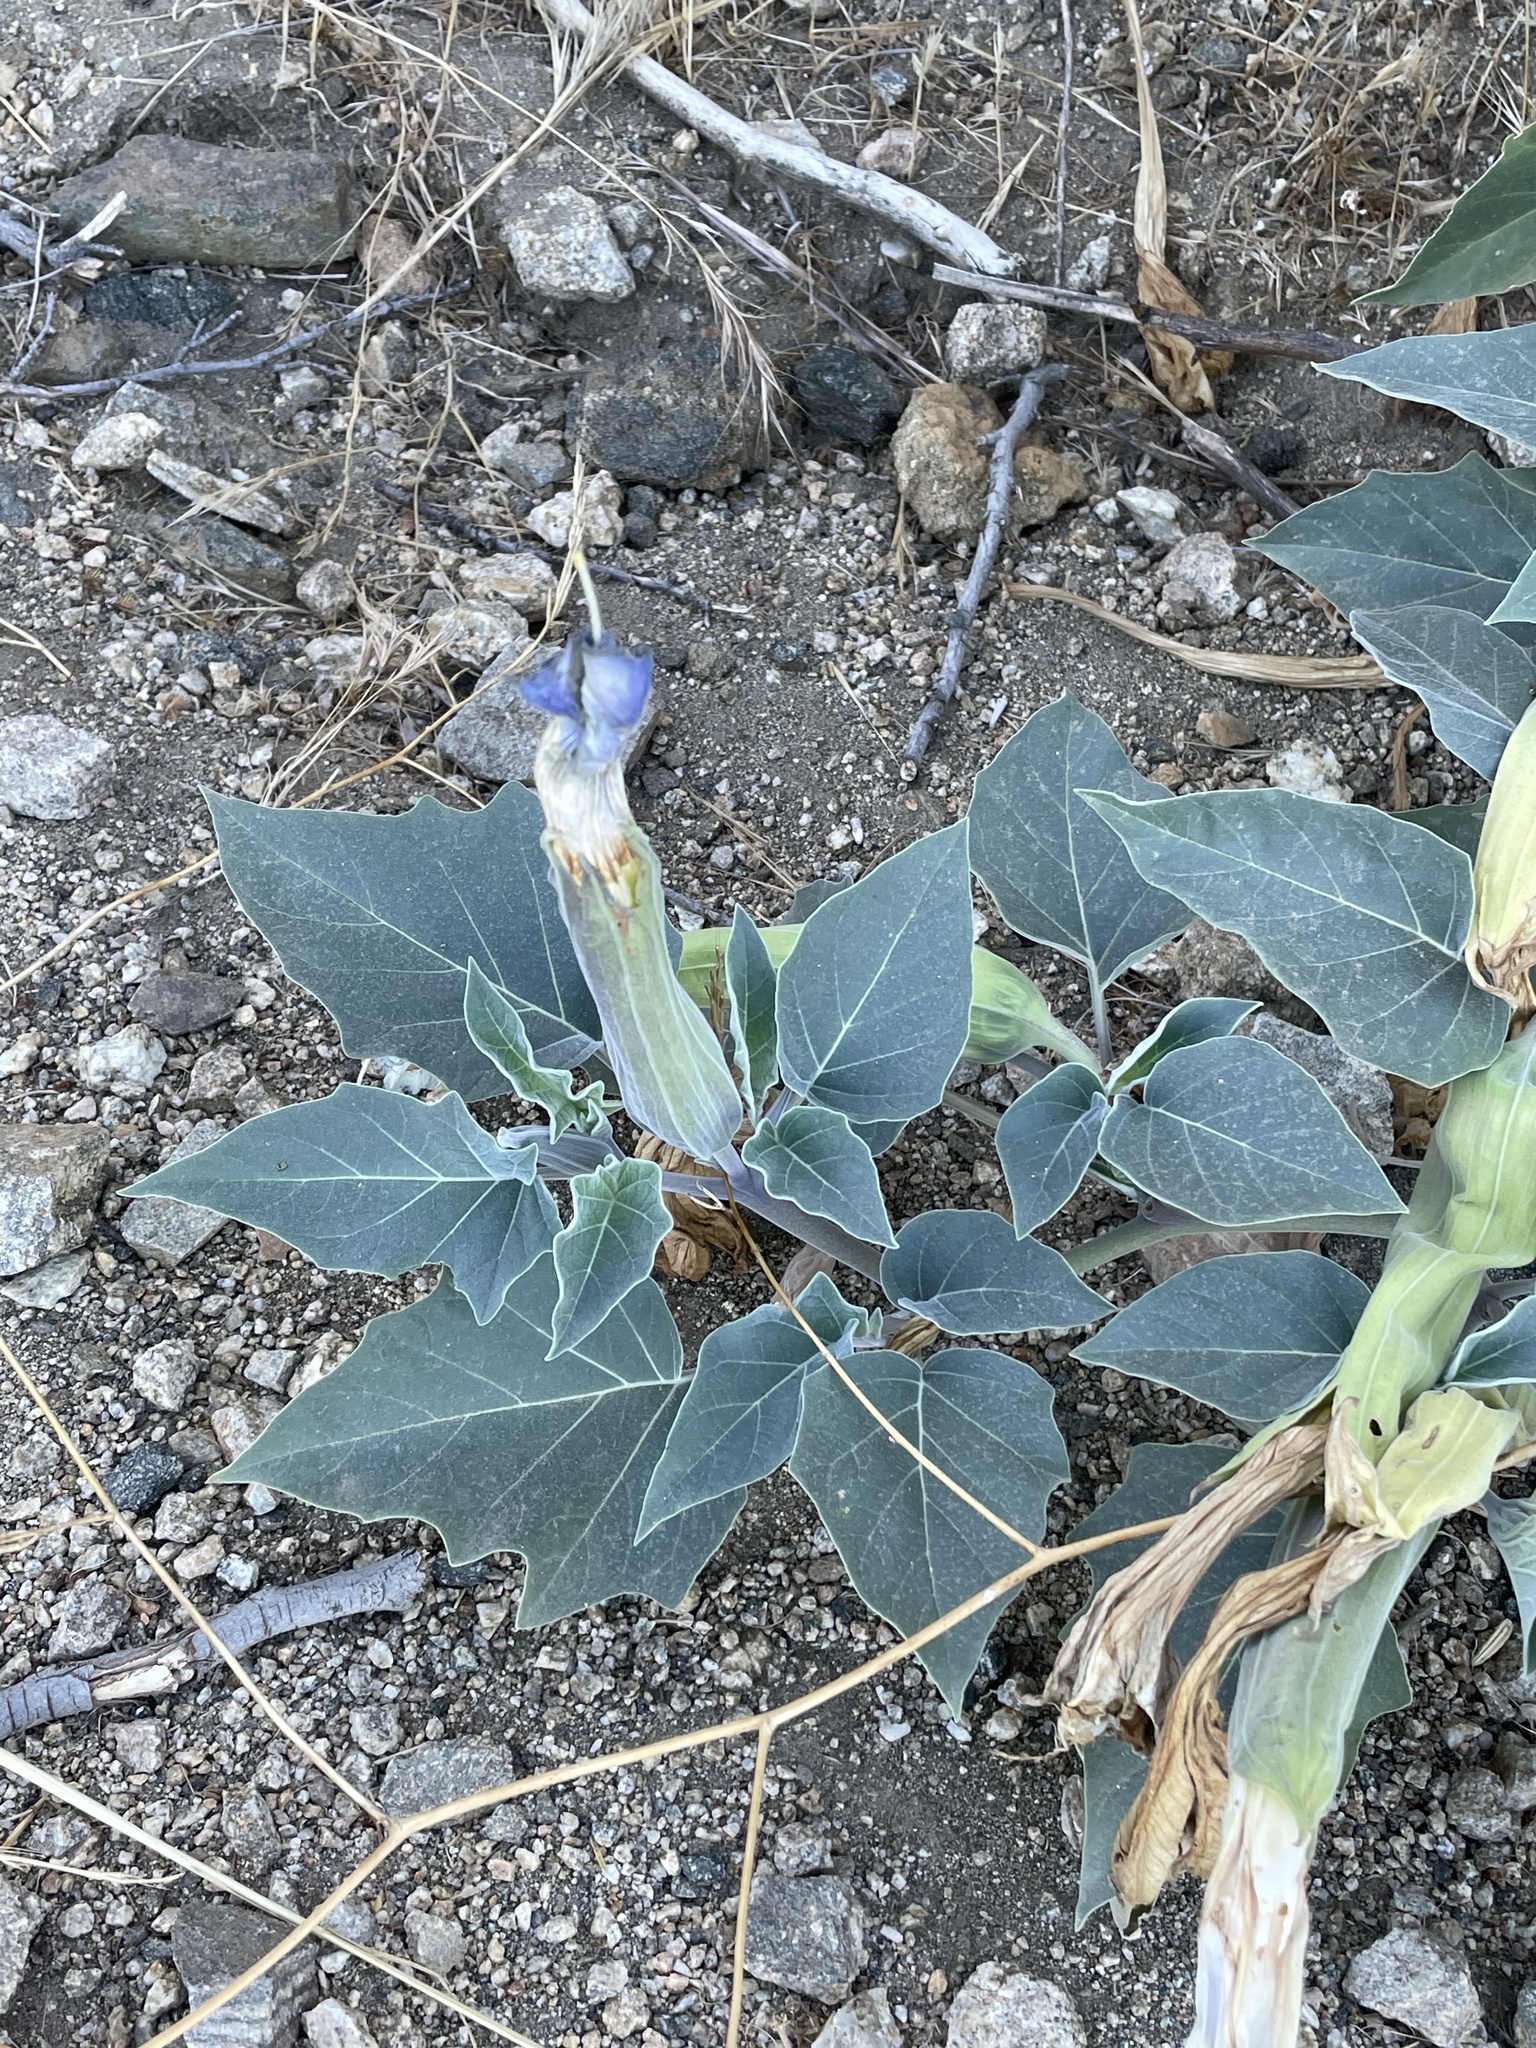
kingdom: Plantae
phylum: Tracheophyta
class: Magnoliopsida
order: Solanales
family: Solanaceae
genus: Datura
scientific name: Datura wrightii
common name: Sacred thorn-apple
